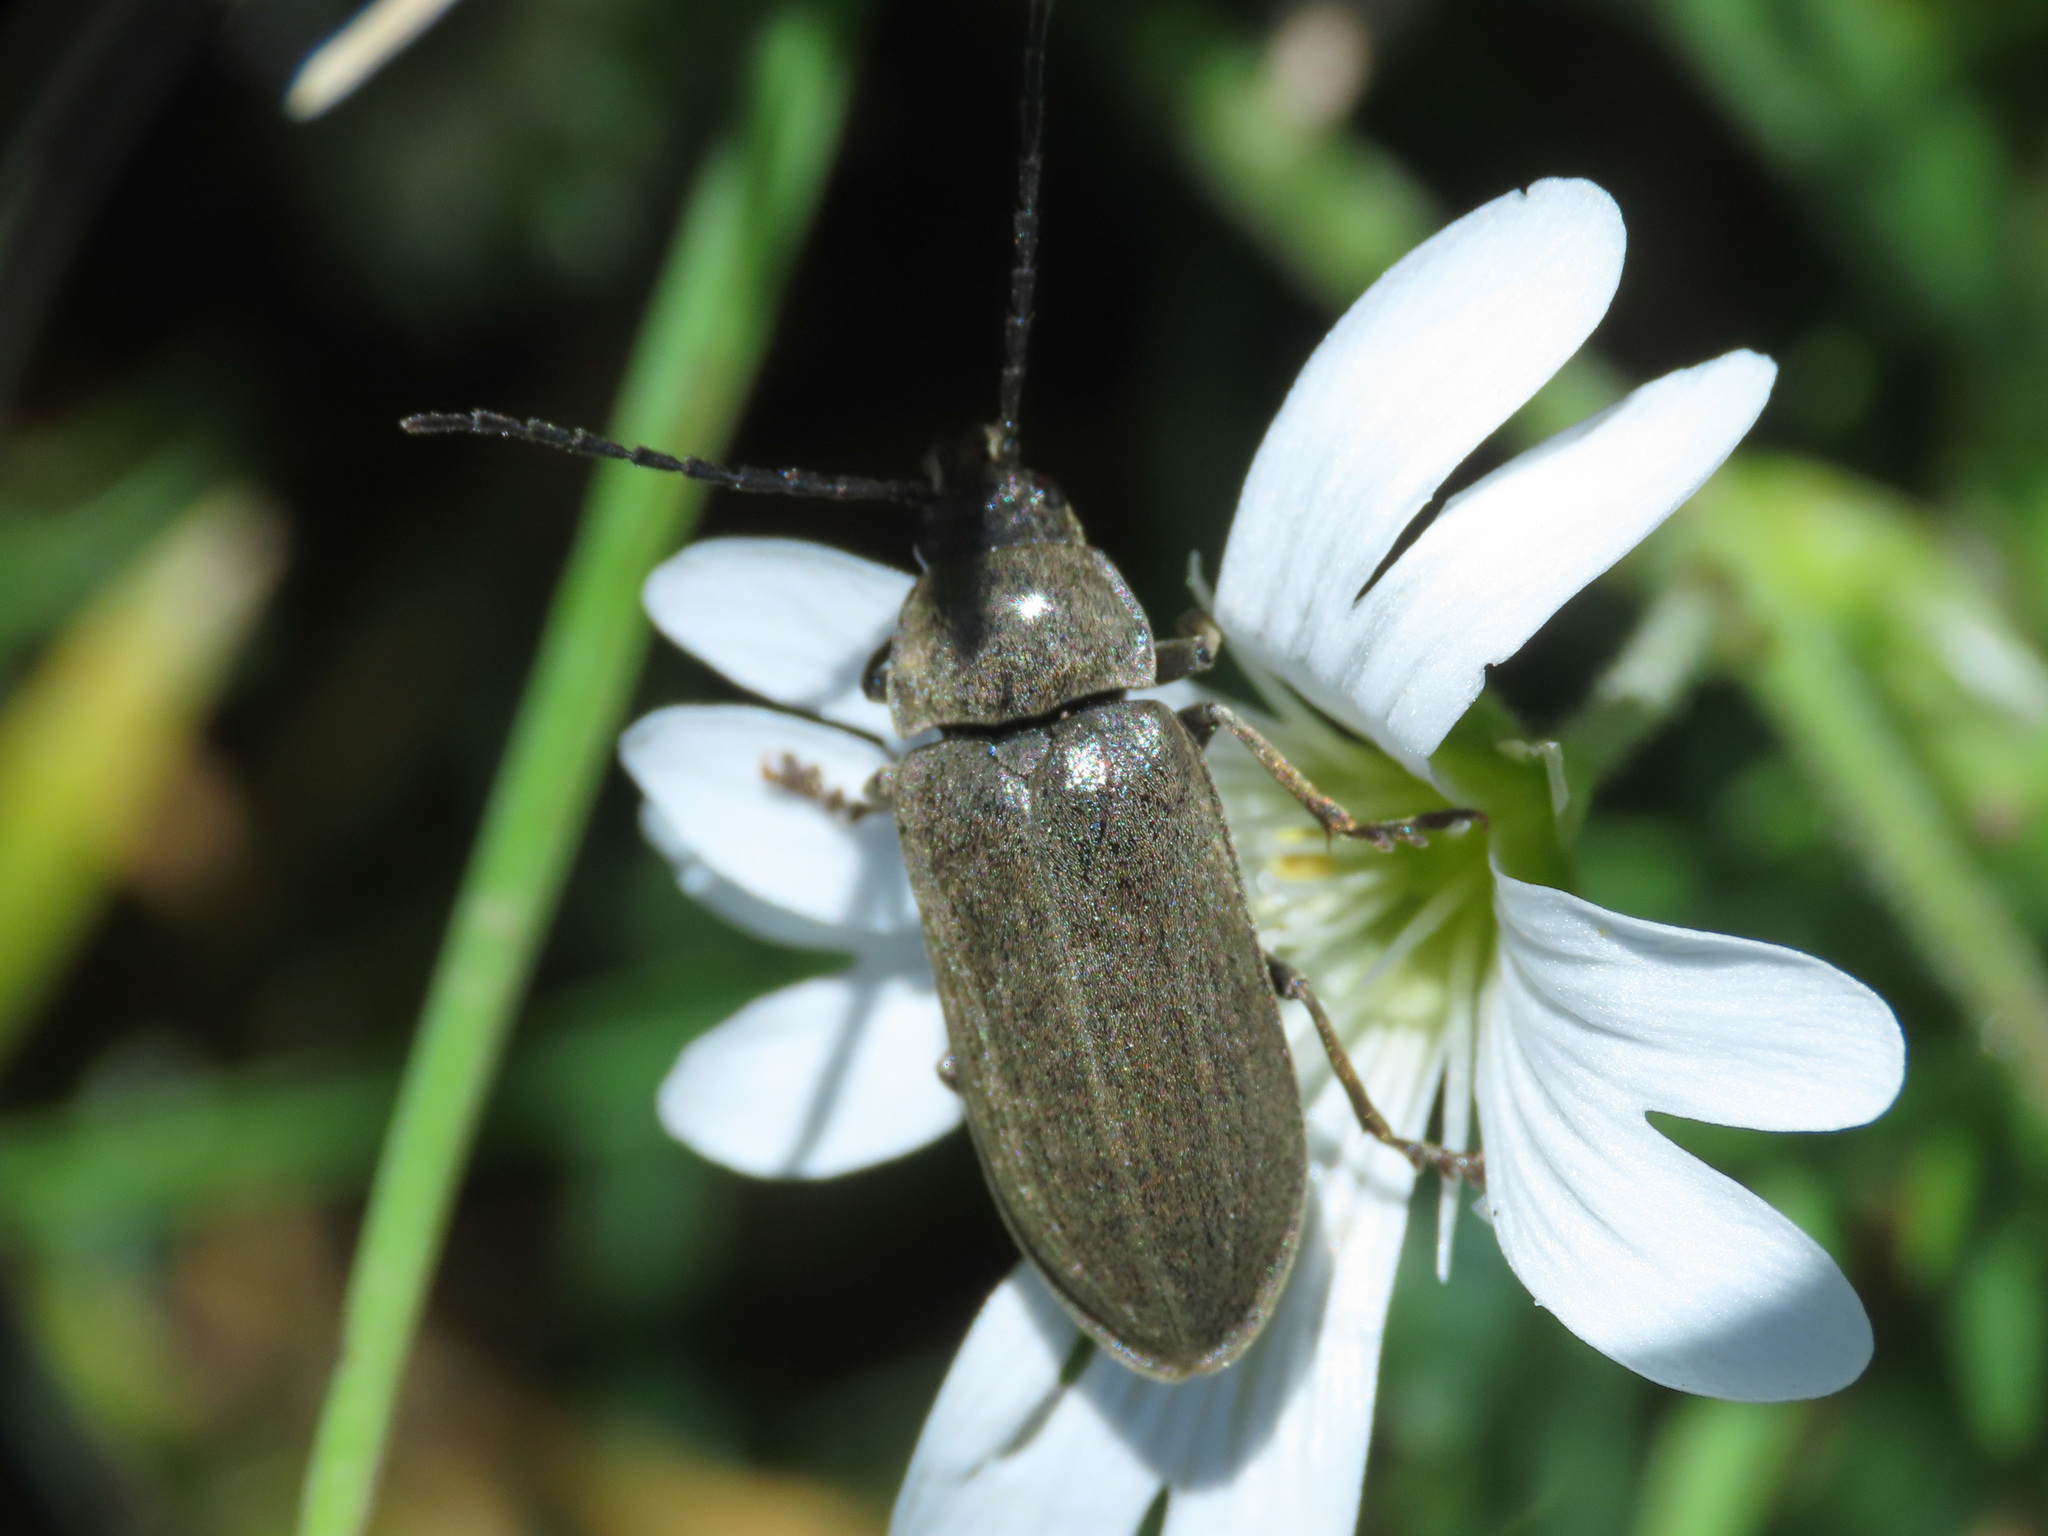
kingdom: Animalia
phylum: Arthropoda
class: Insecta
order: Coleoptera
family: Dascillidae
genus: Dascillus
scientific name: Dascillus cervinus
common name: Orchid beetle
